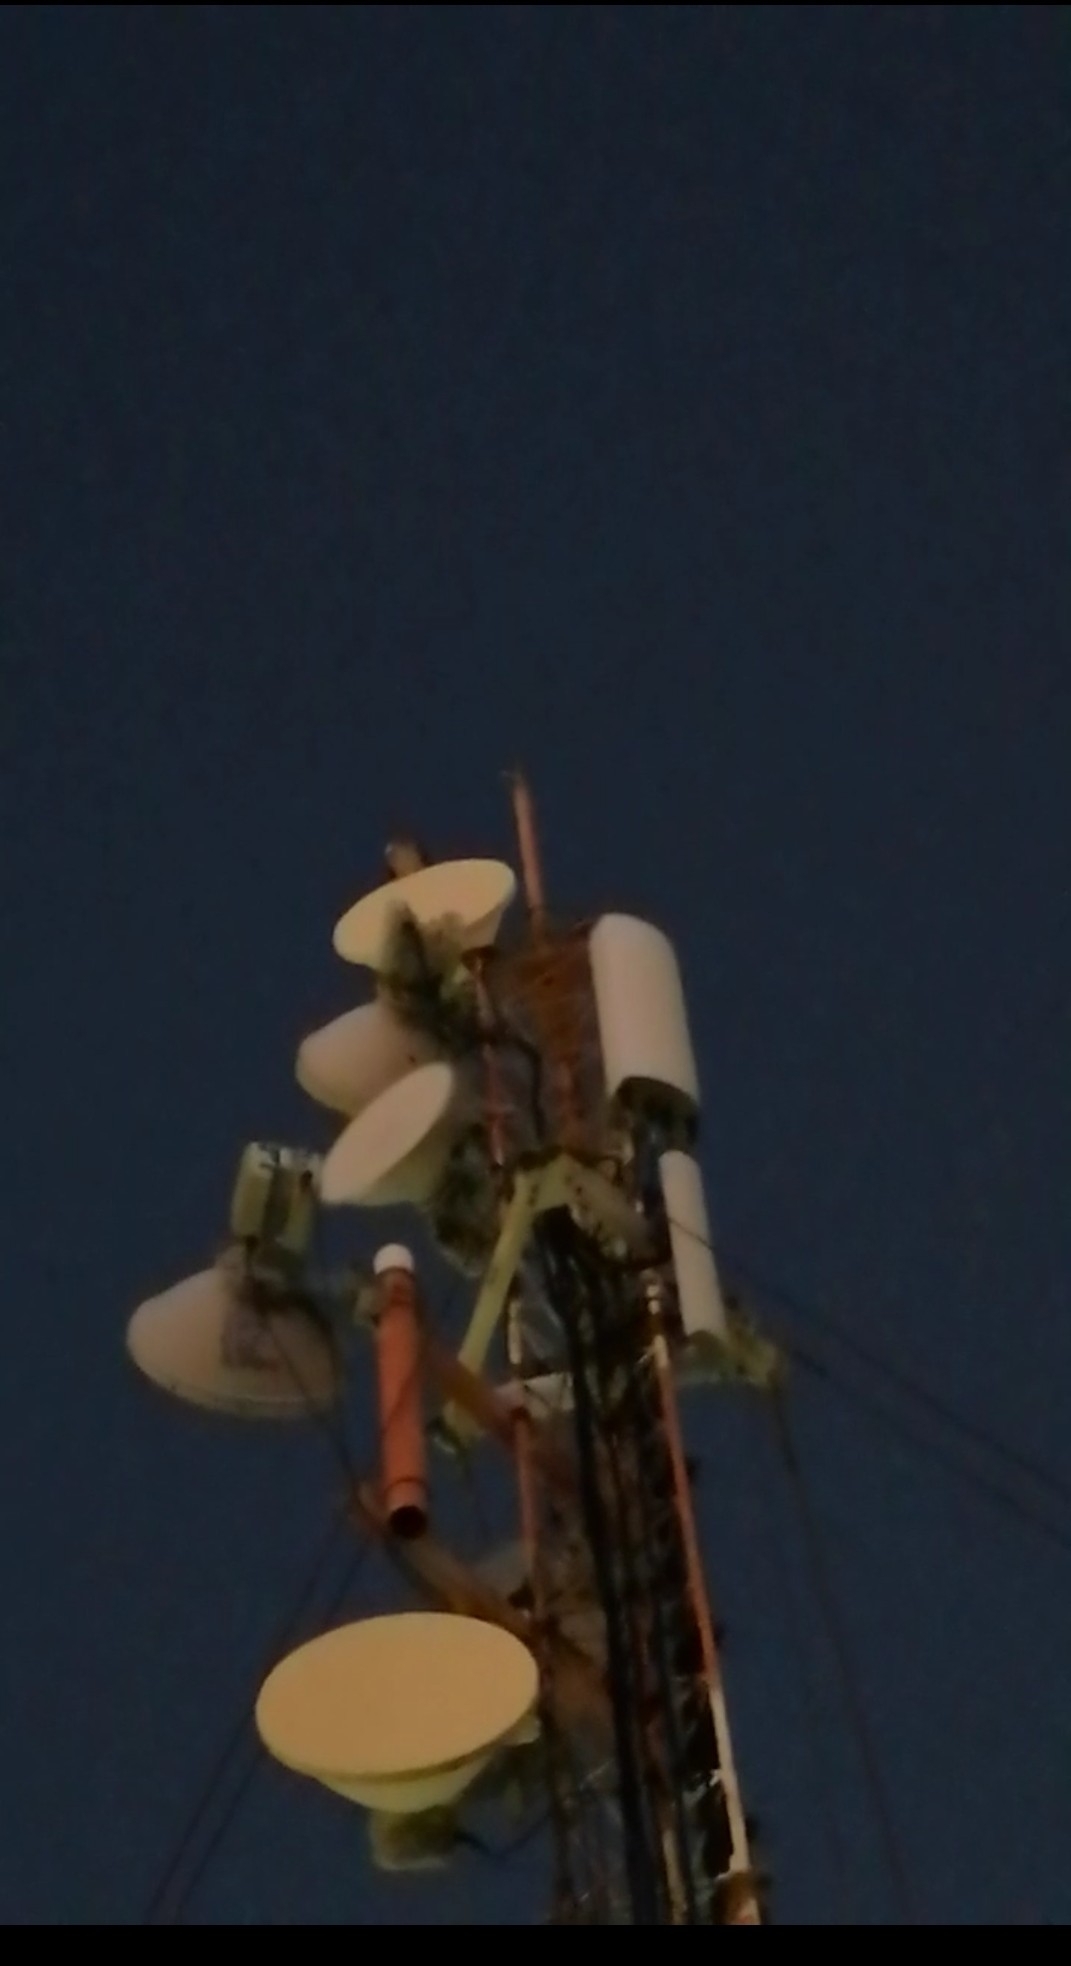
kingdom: Animalia
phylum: Chordata
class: Aves
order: Strigiformes
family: Strigidae
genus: Bubo
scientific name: Bubo virginianus
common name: Great horned owl
